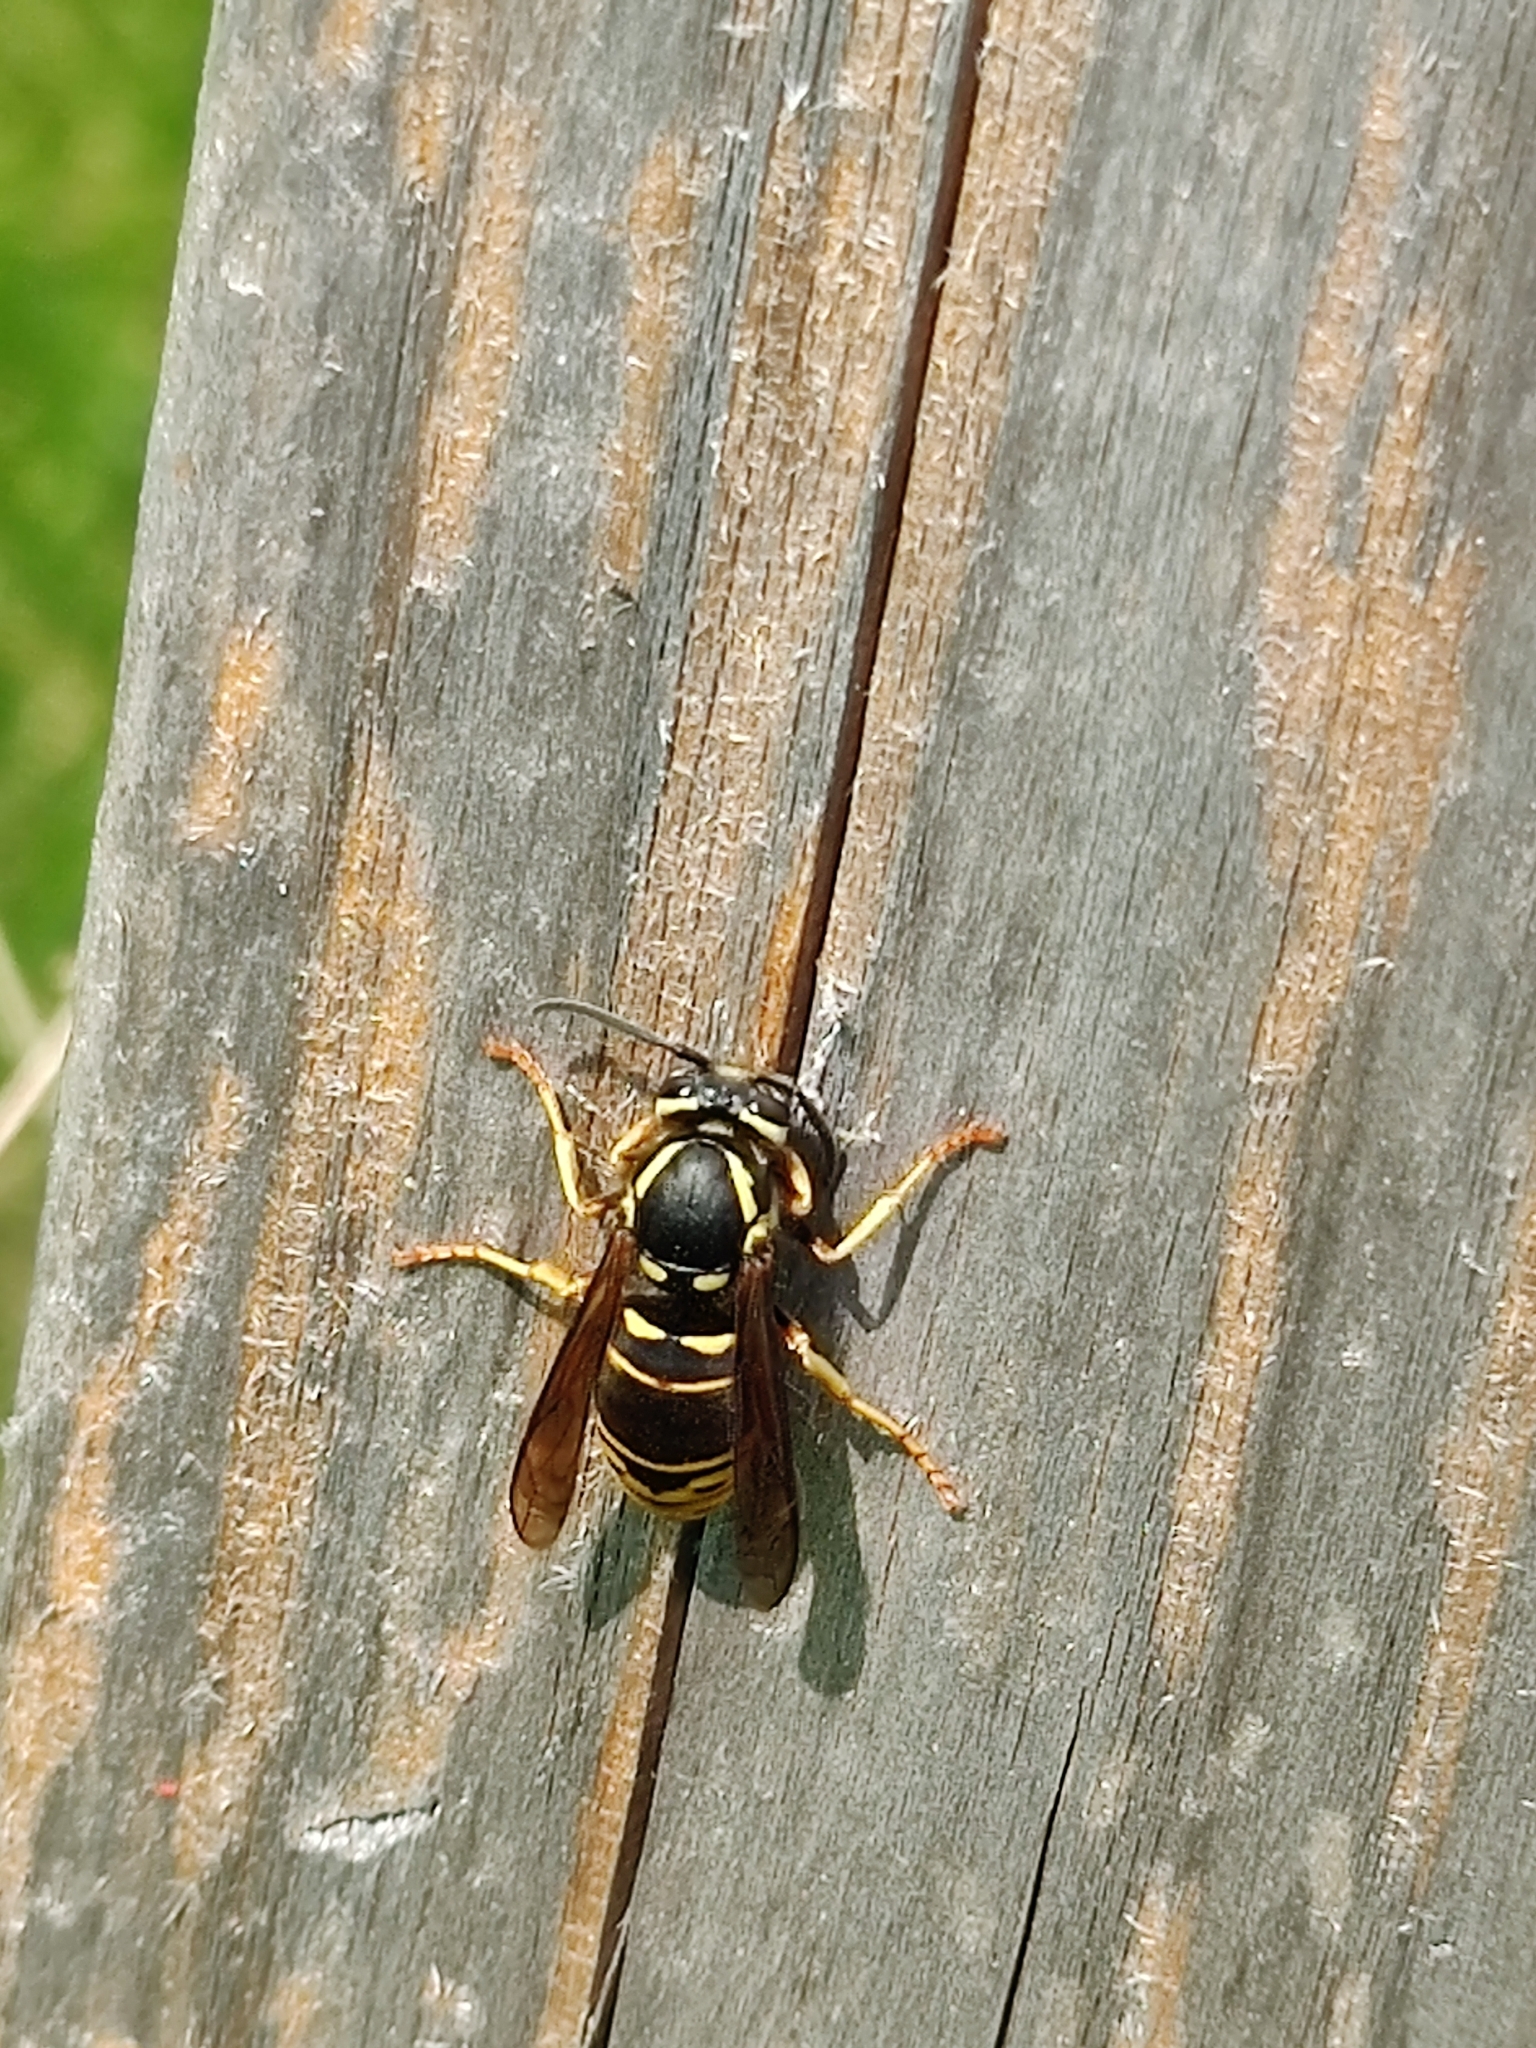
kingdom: Animalia
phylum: Arthropoda
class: Insecta
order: Hymenoptera
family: Vespidae
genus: Vespula
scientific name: Vespula vidua
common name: Widow yellowjacket
